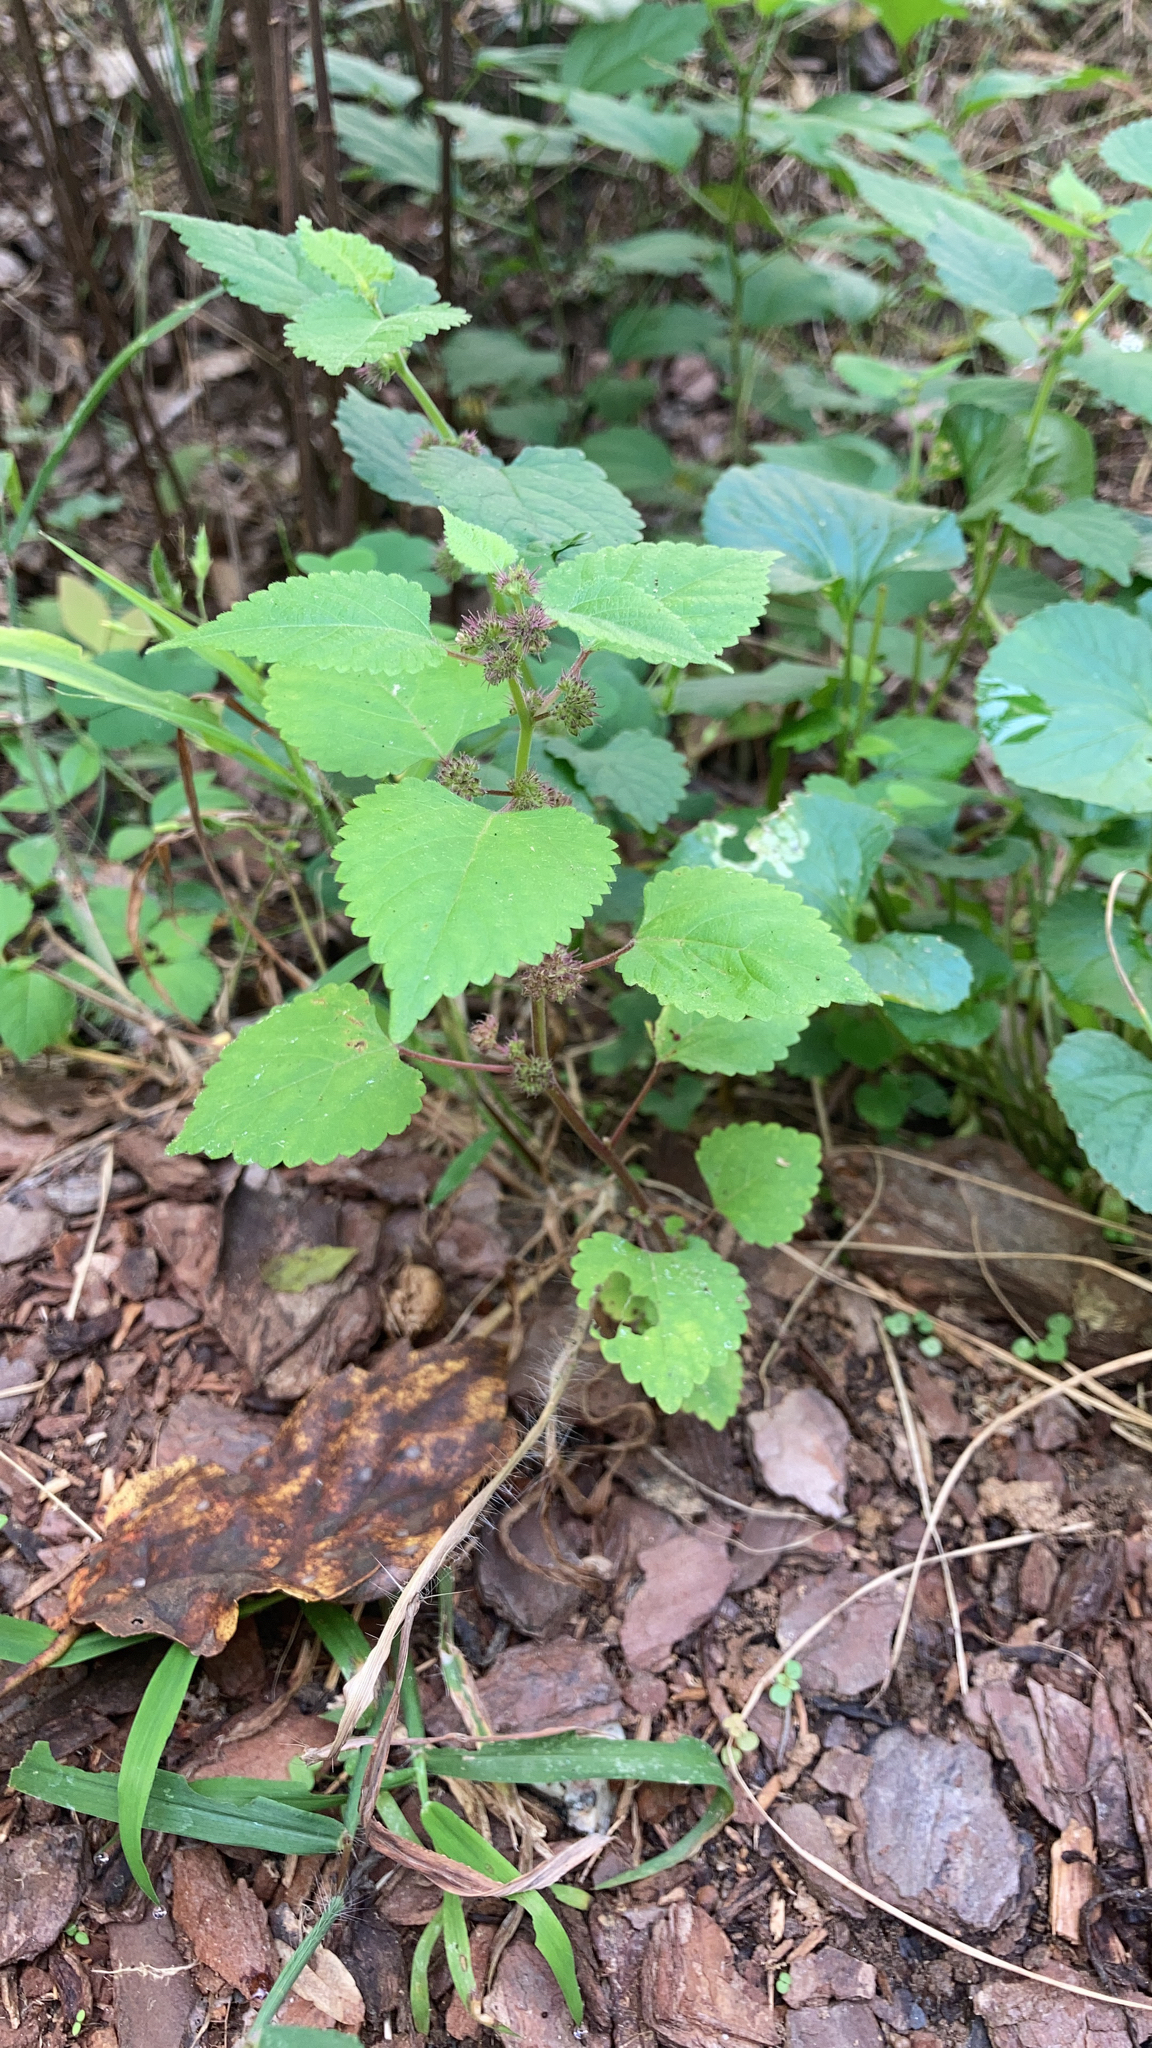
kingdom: Plantae
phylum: Tracheophyta
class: Magnoliopsida
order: Rosales
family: Moraceae
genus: Fatoua
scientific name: Fatoua villosa
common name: Hairy crabweed
